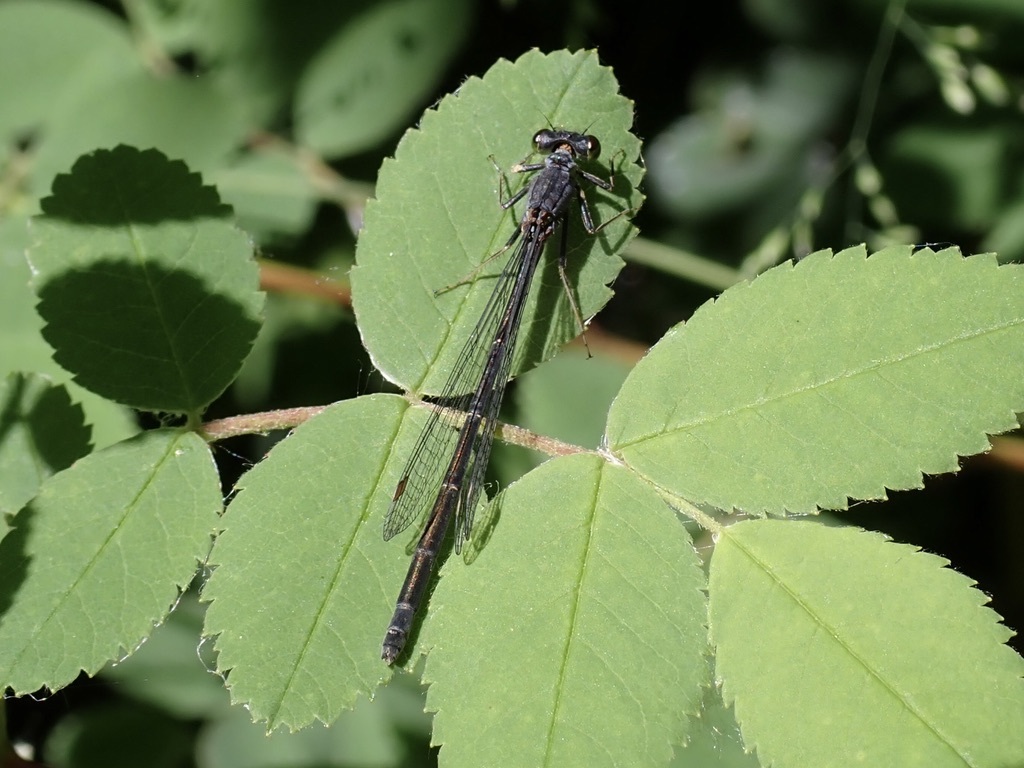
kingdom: Animalia
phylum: Arthropoda
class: Insecta
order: Odonata
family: Coenagrionidae
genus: Ischnura
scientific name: Ischnura cervula
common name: Pacific forktail
